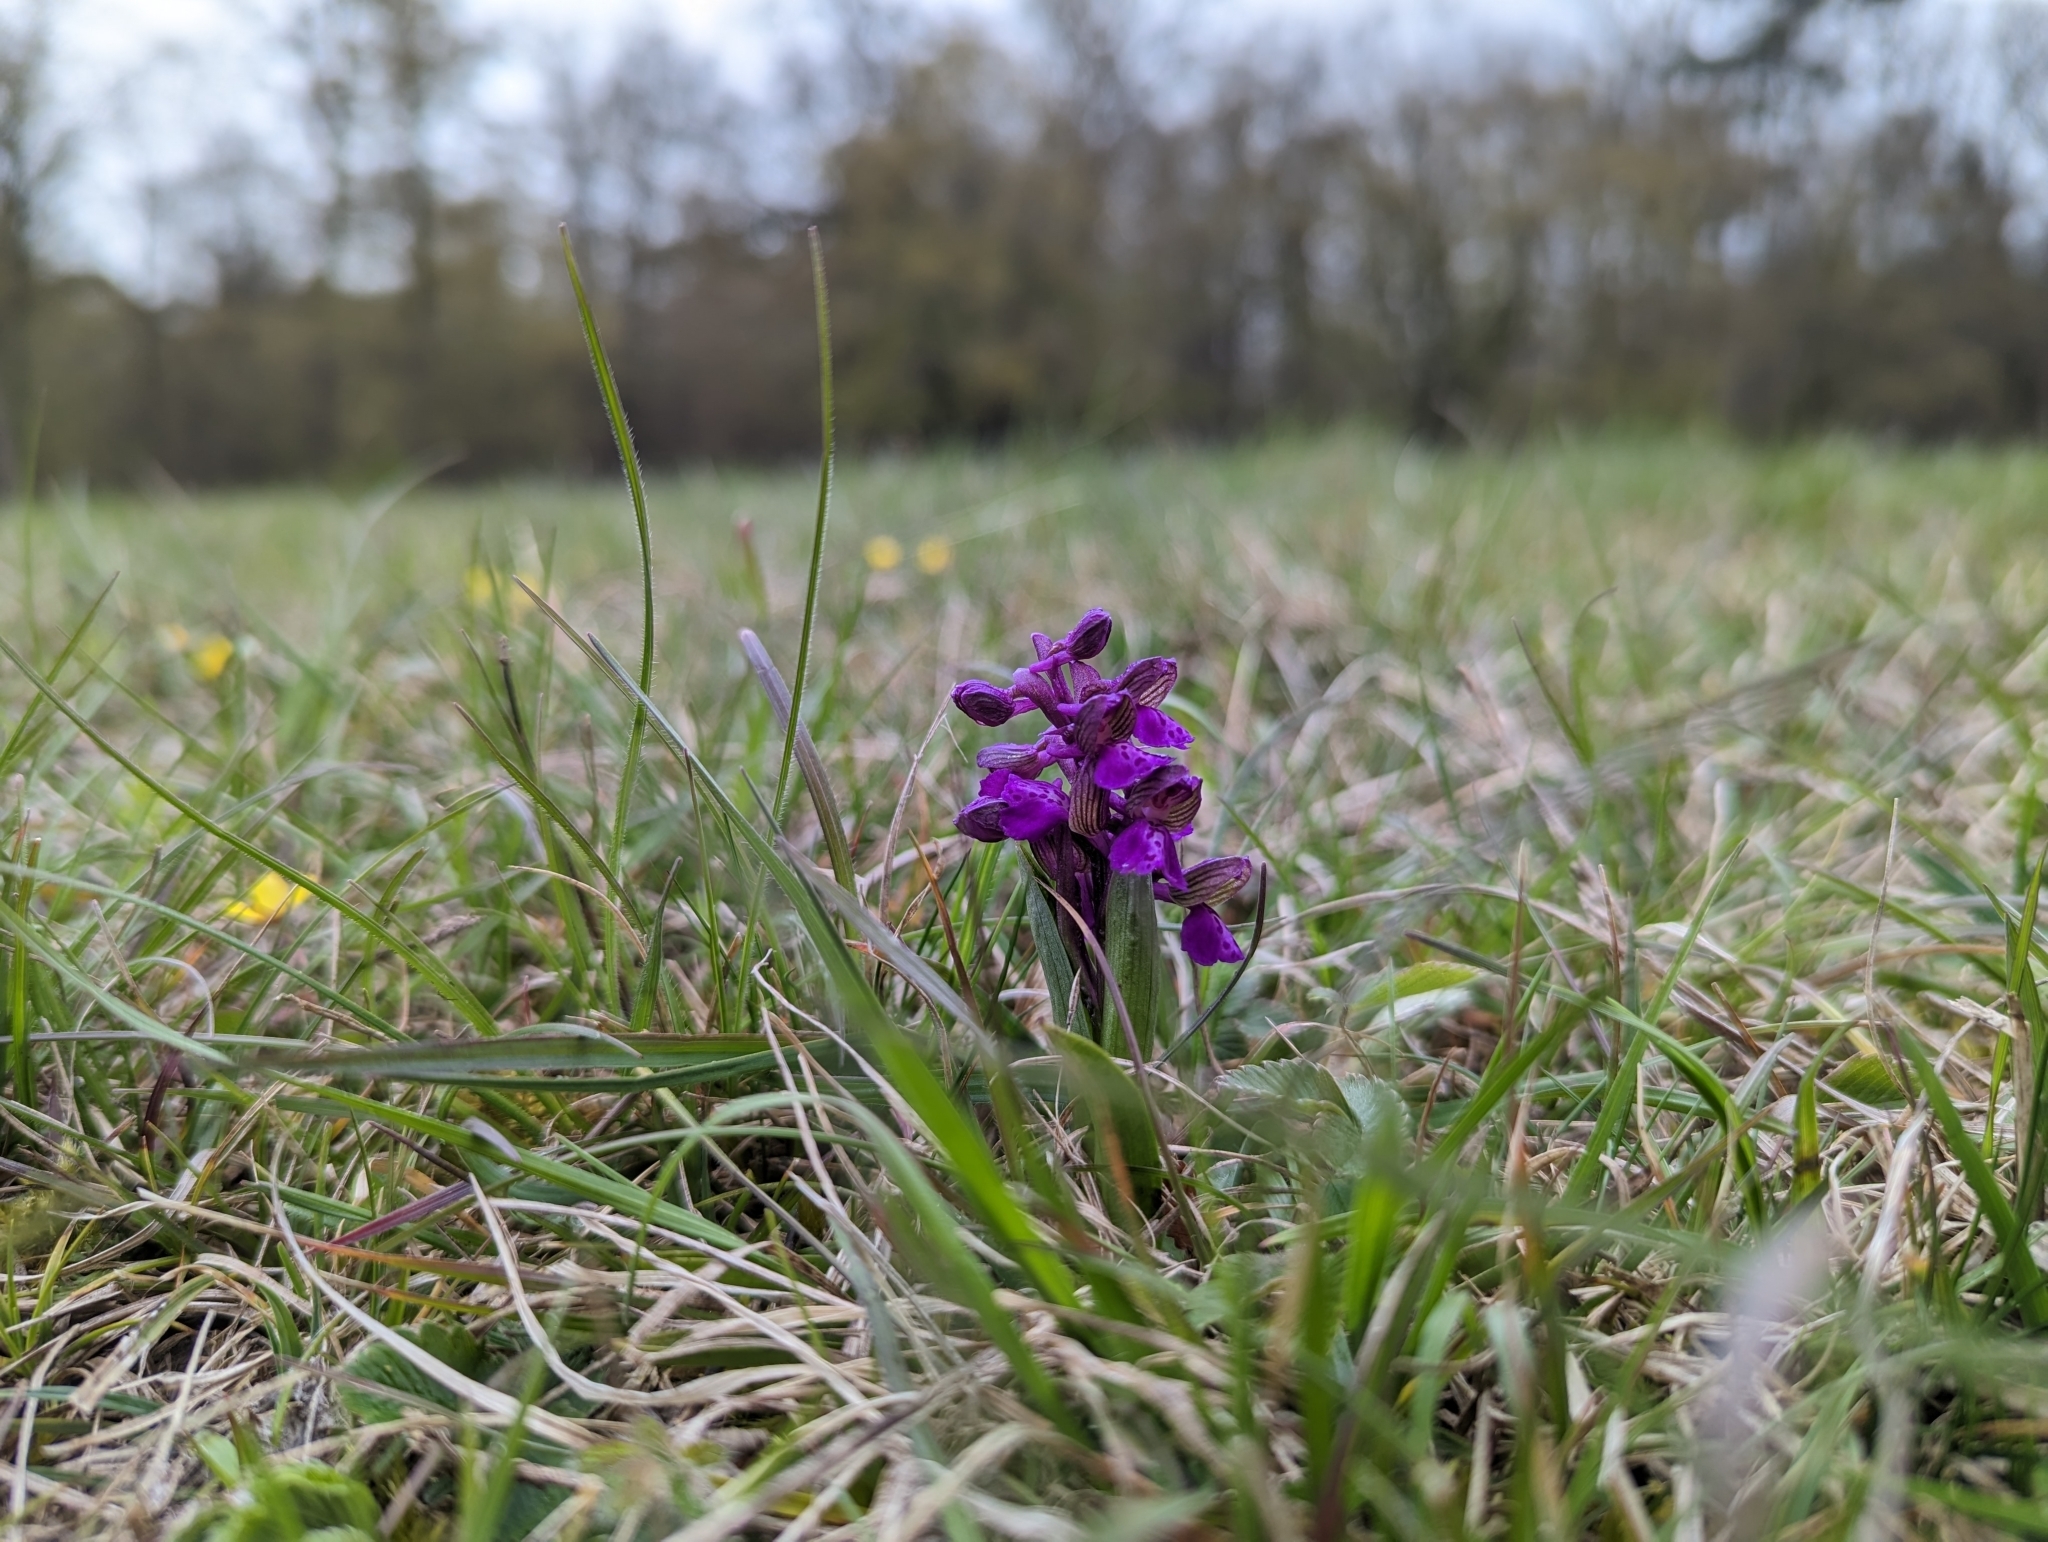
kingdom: Plantae
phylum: Tracheophyta
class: Liliopsida
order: Asparagales
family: Orchidaceae
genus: Anacamptis
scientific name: Anacamptis morio
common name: Green-winged orchid
